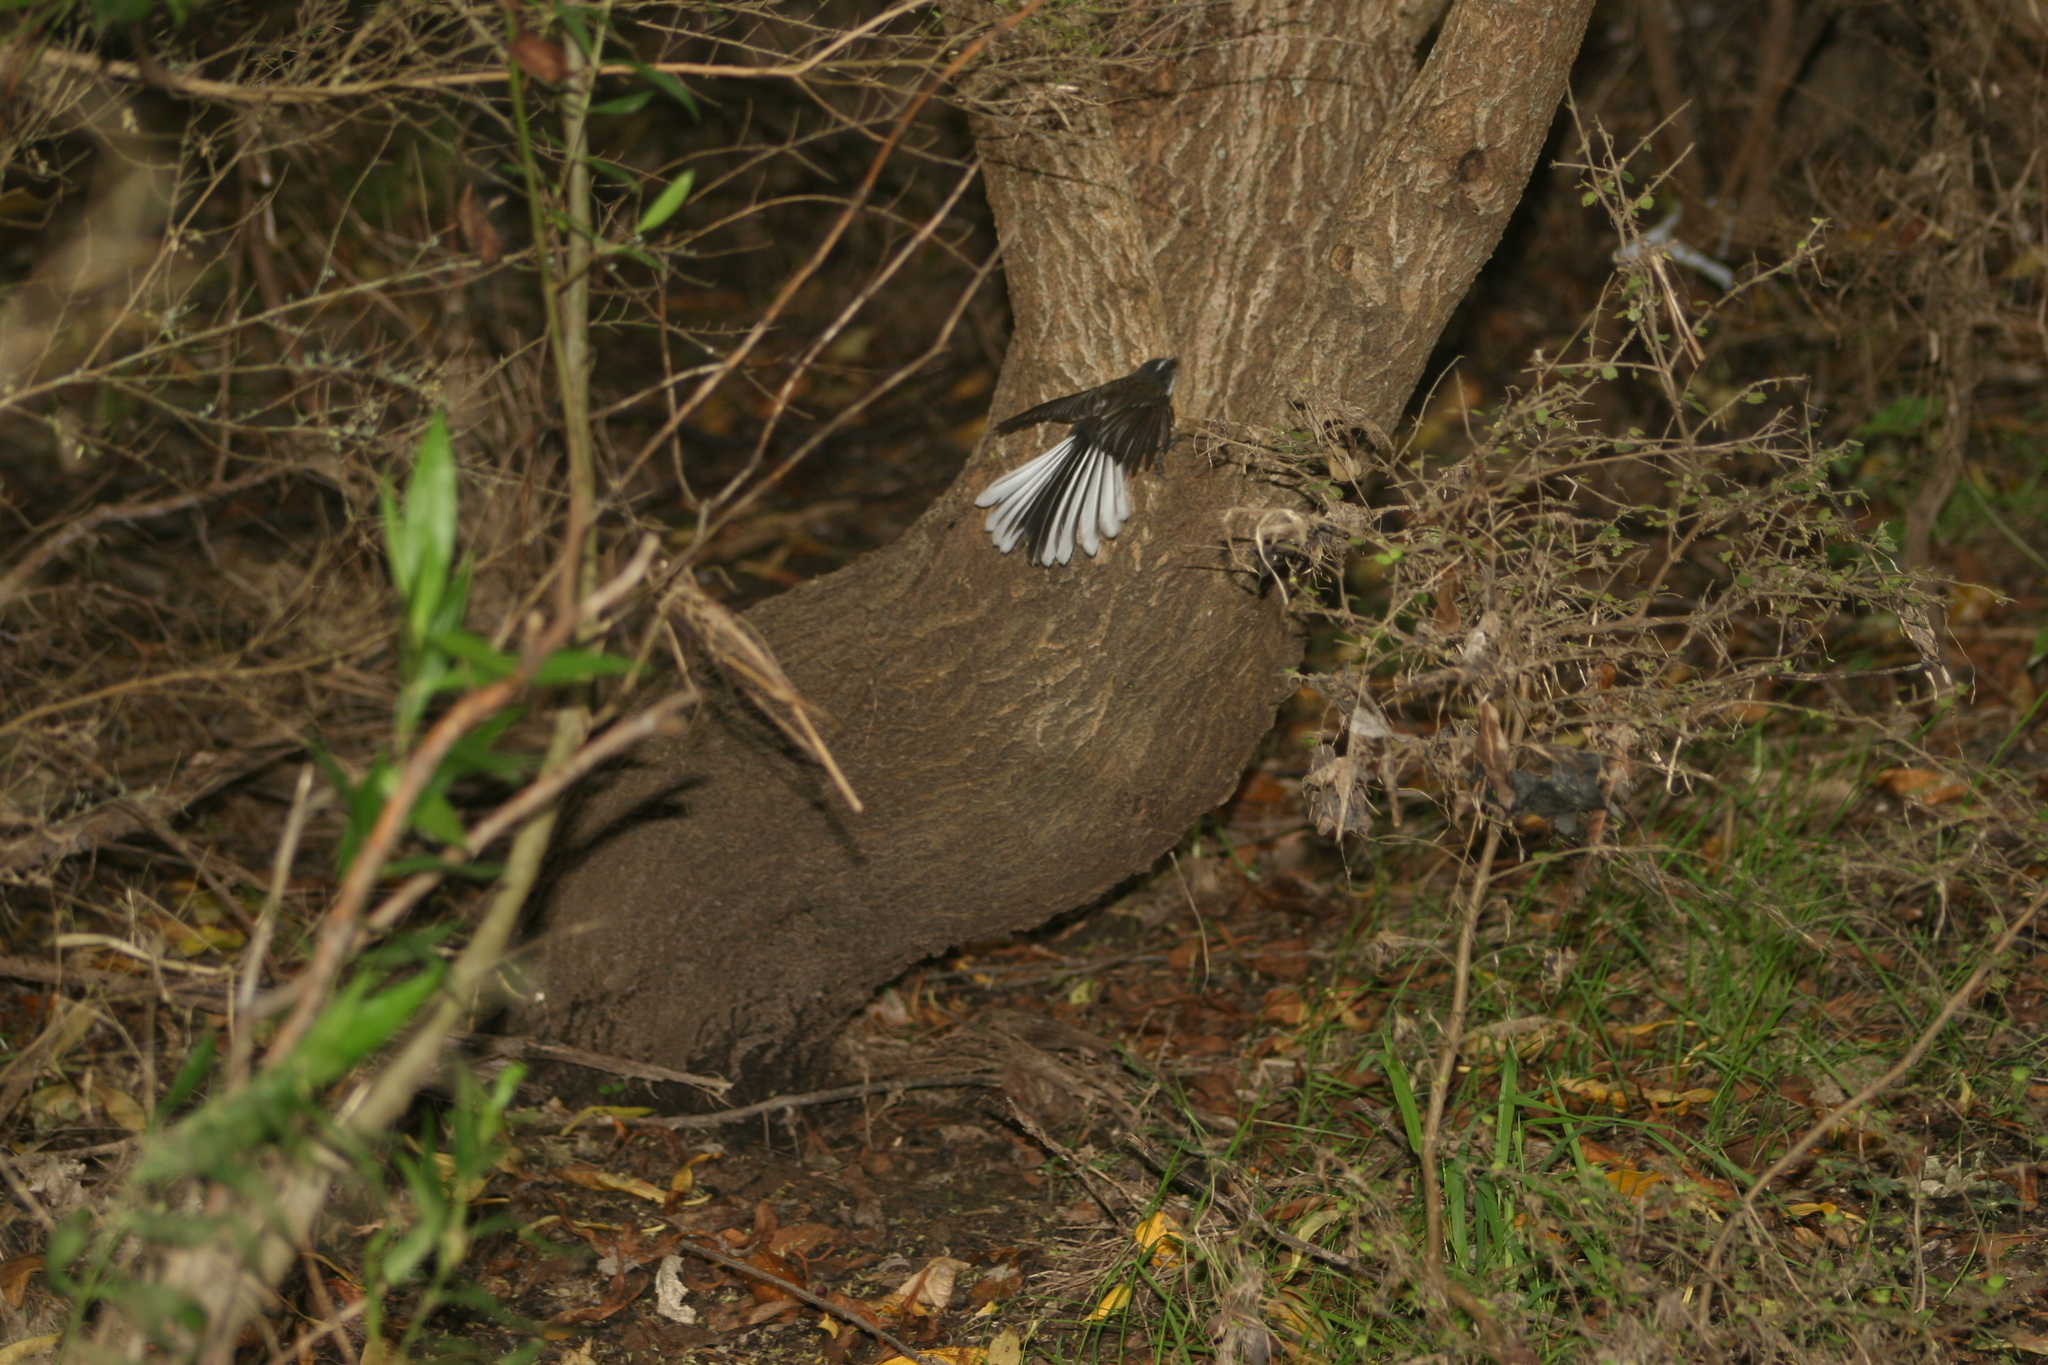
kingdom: Animalia
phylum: Chordata
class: Aves
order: Passeriformes
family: Rhipiduridae
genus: Rhipidura
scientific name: Rhipidura fuliginosa
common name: New zealand fantail
